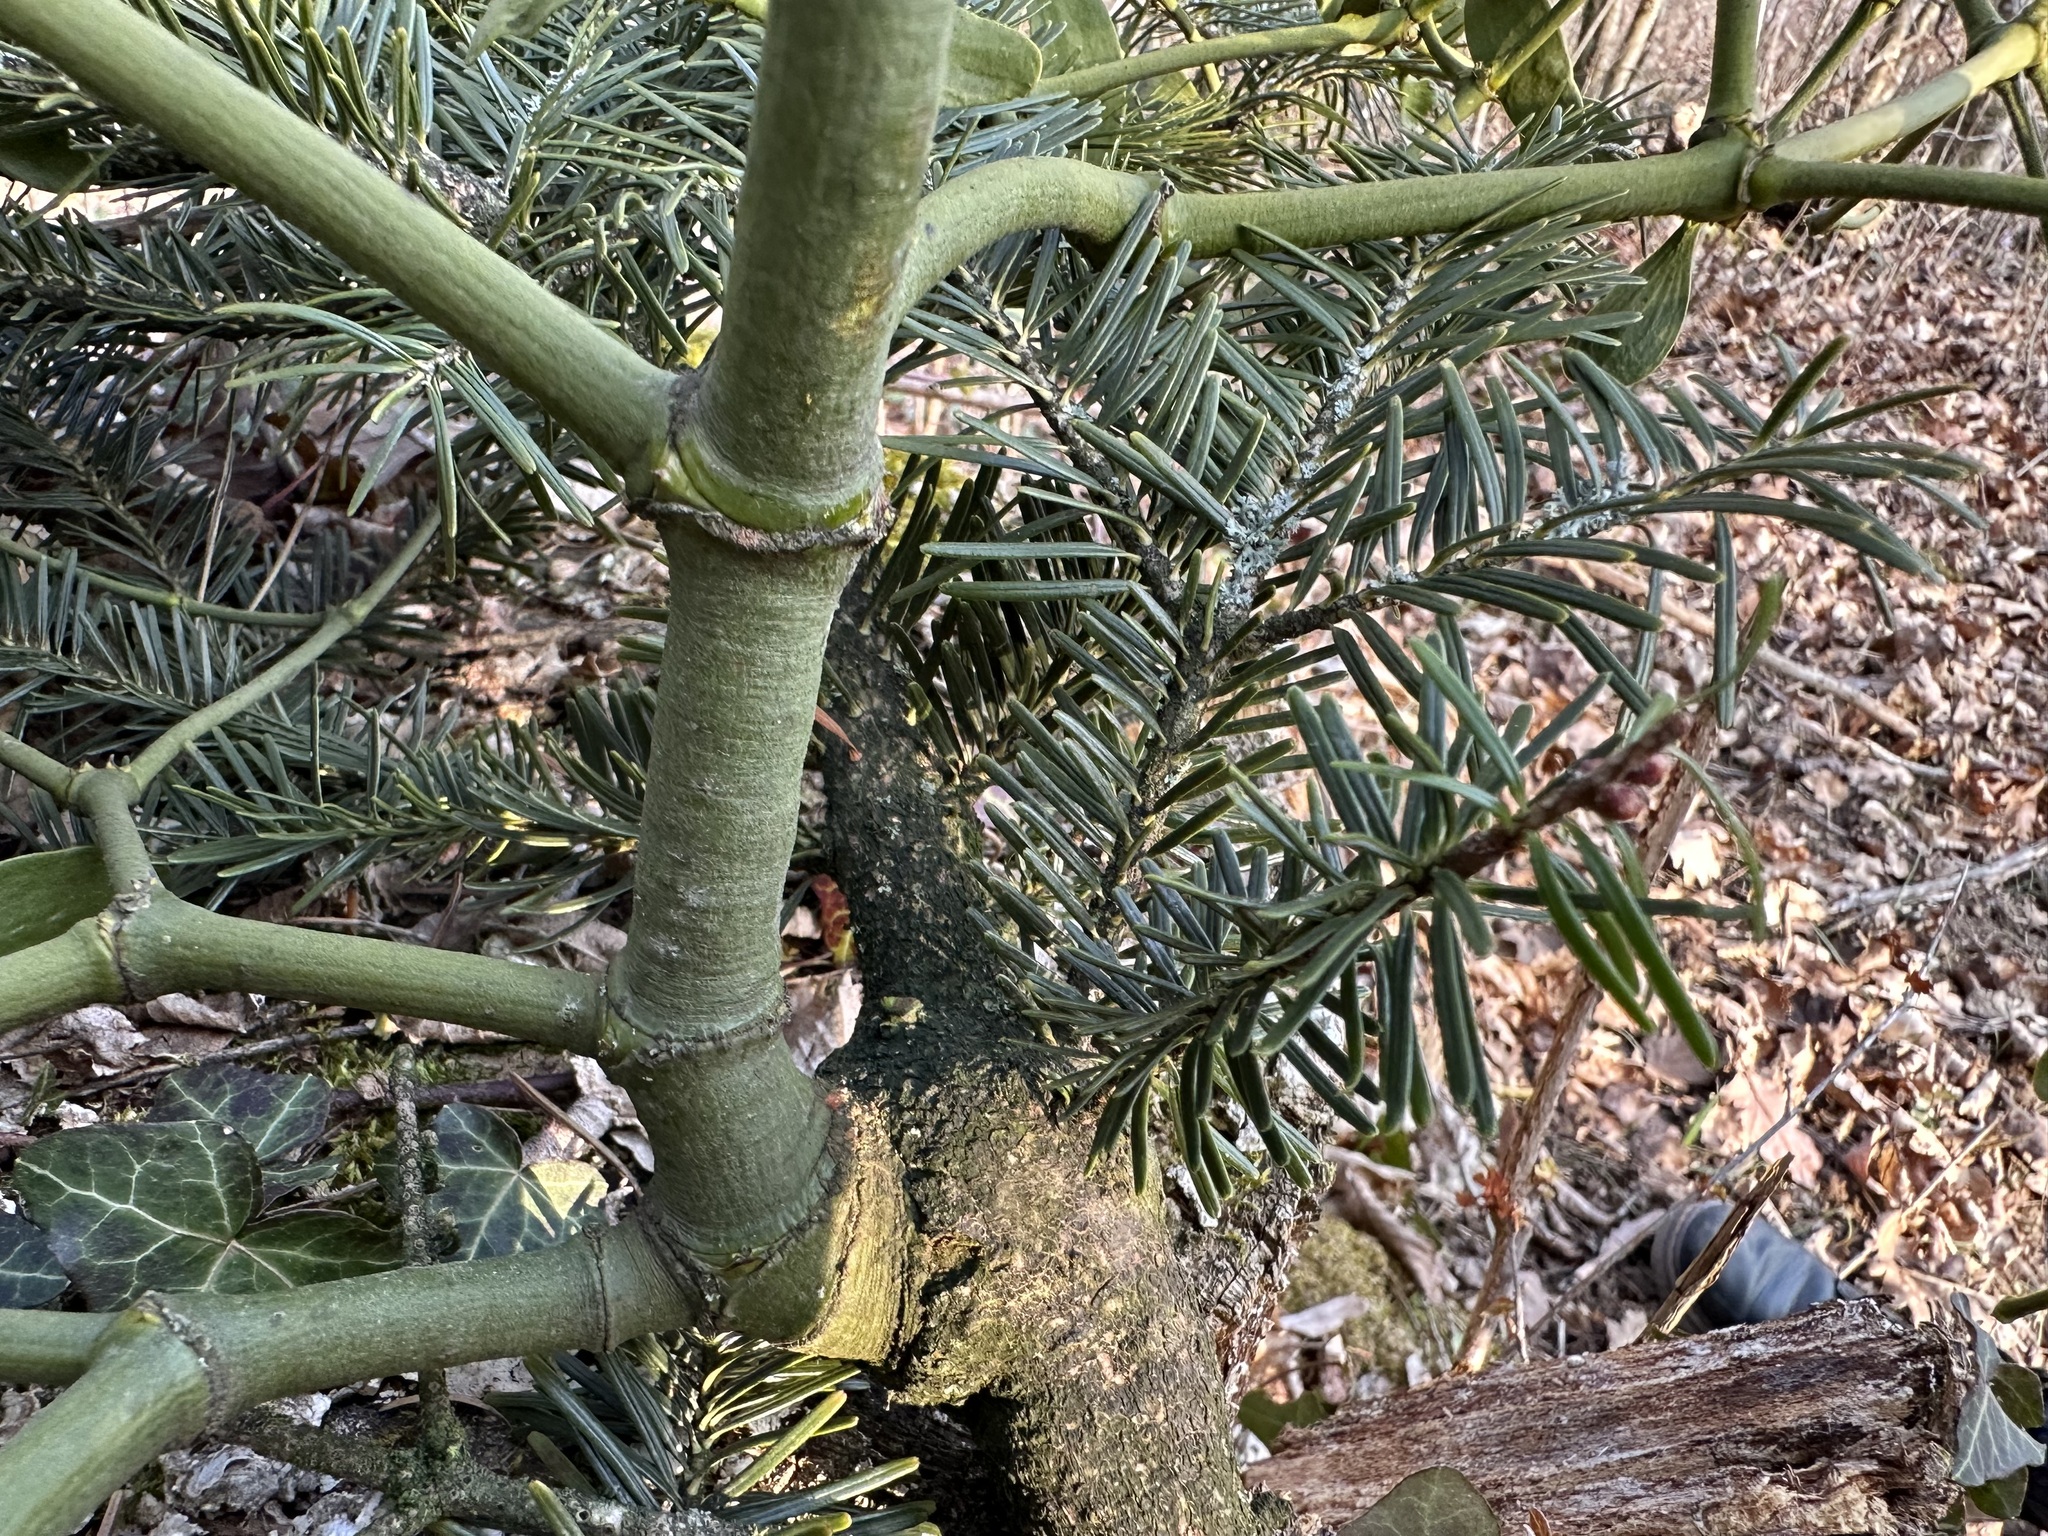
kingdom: Plantae
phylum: Tracheophyta
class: Magnoliopsida
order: Santalales
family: Viscaceae
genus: Viscum
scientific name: Viscum album
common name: Mistletoe
